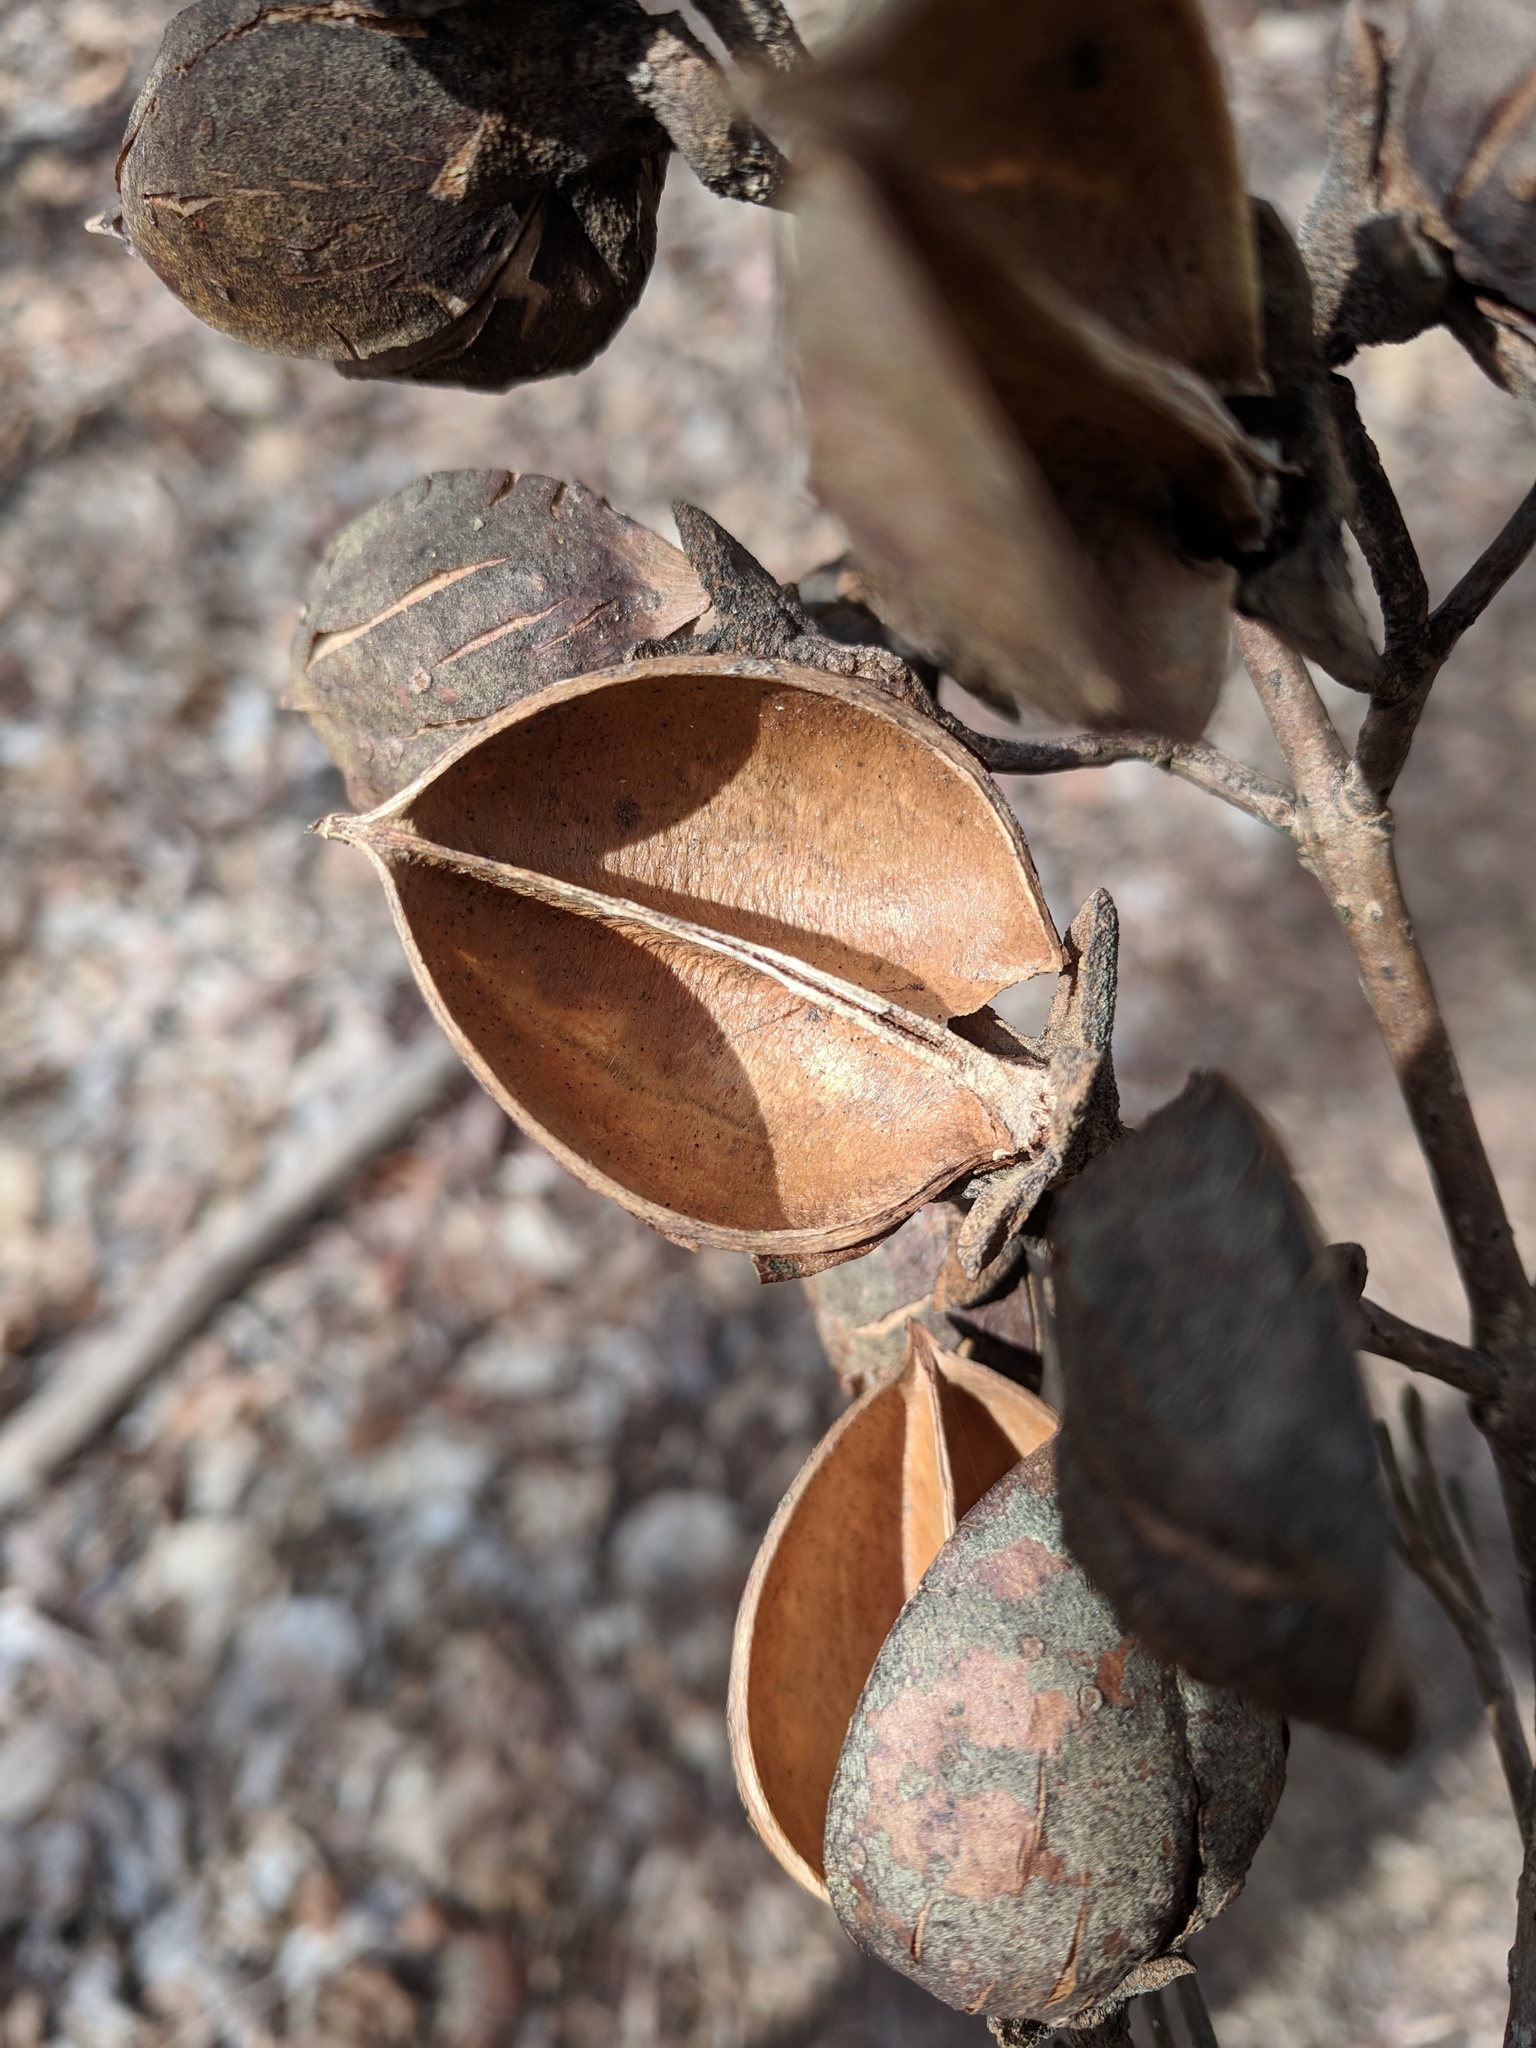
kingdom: Plantae
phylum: Tracheophyta
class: Magnoliopsida
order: Lamiales
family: Paulowniaceae
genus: Paulownia
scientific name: Paulownia tomentosa
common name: Foxglove-tree
